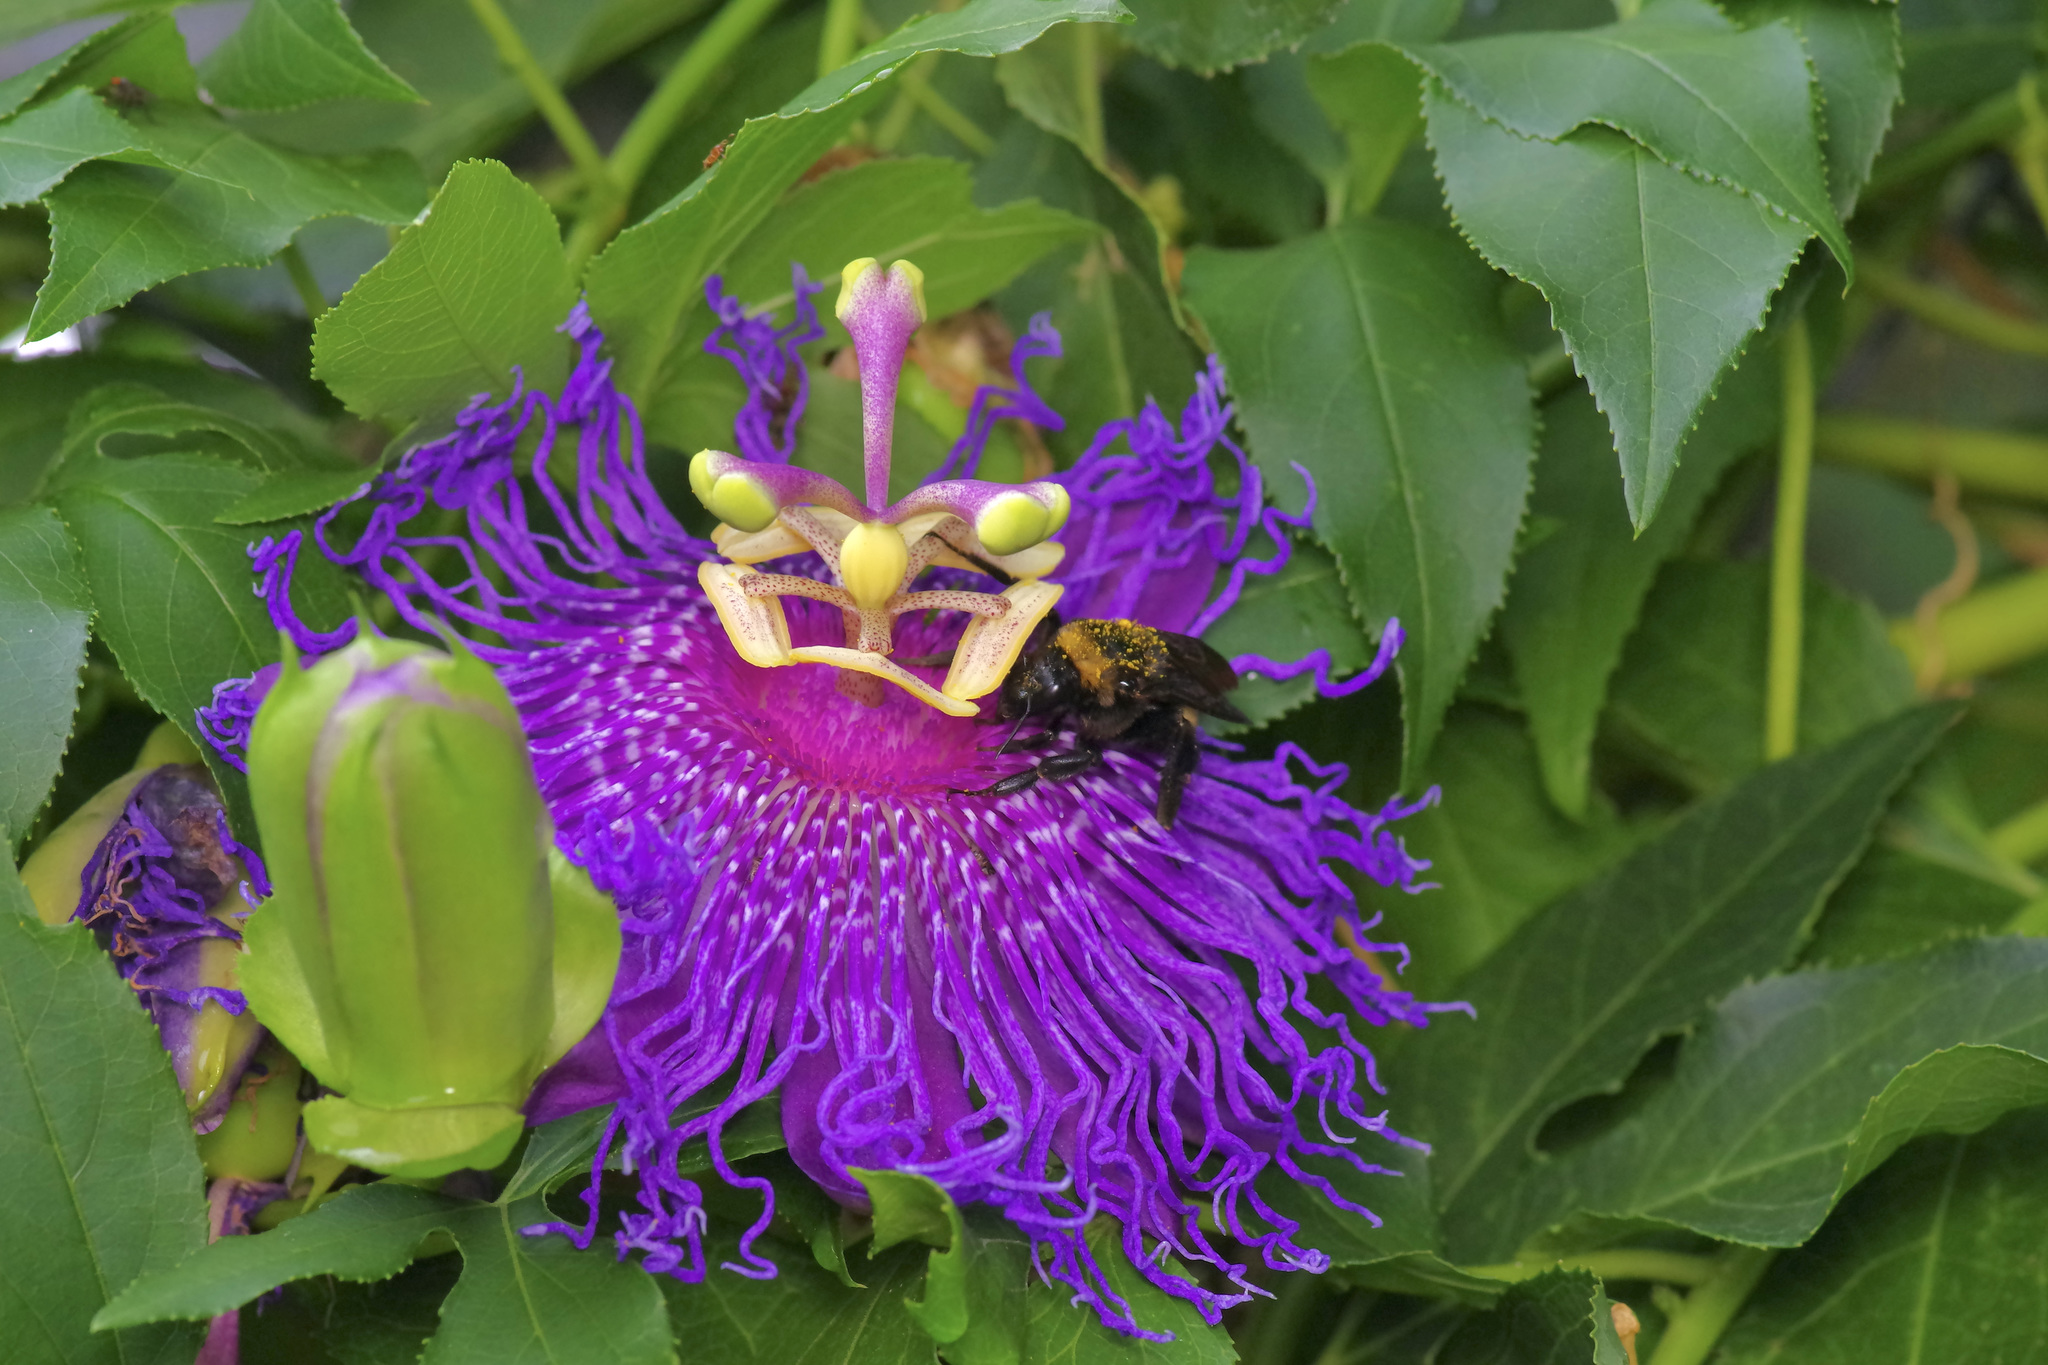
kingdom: Animalia
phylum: Arthropoda
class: Insecta
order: Hymenoptera
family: Apidae
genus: Bombus
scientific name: Bombus pensylvanicus
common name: Bumble bee
